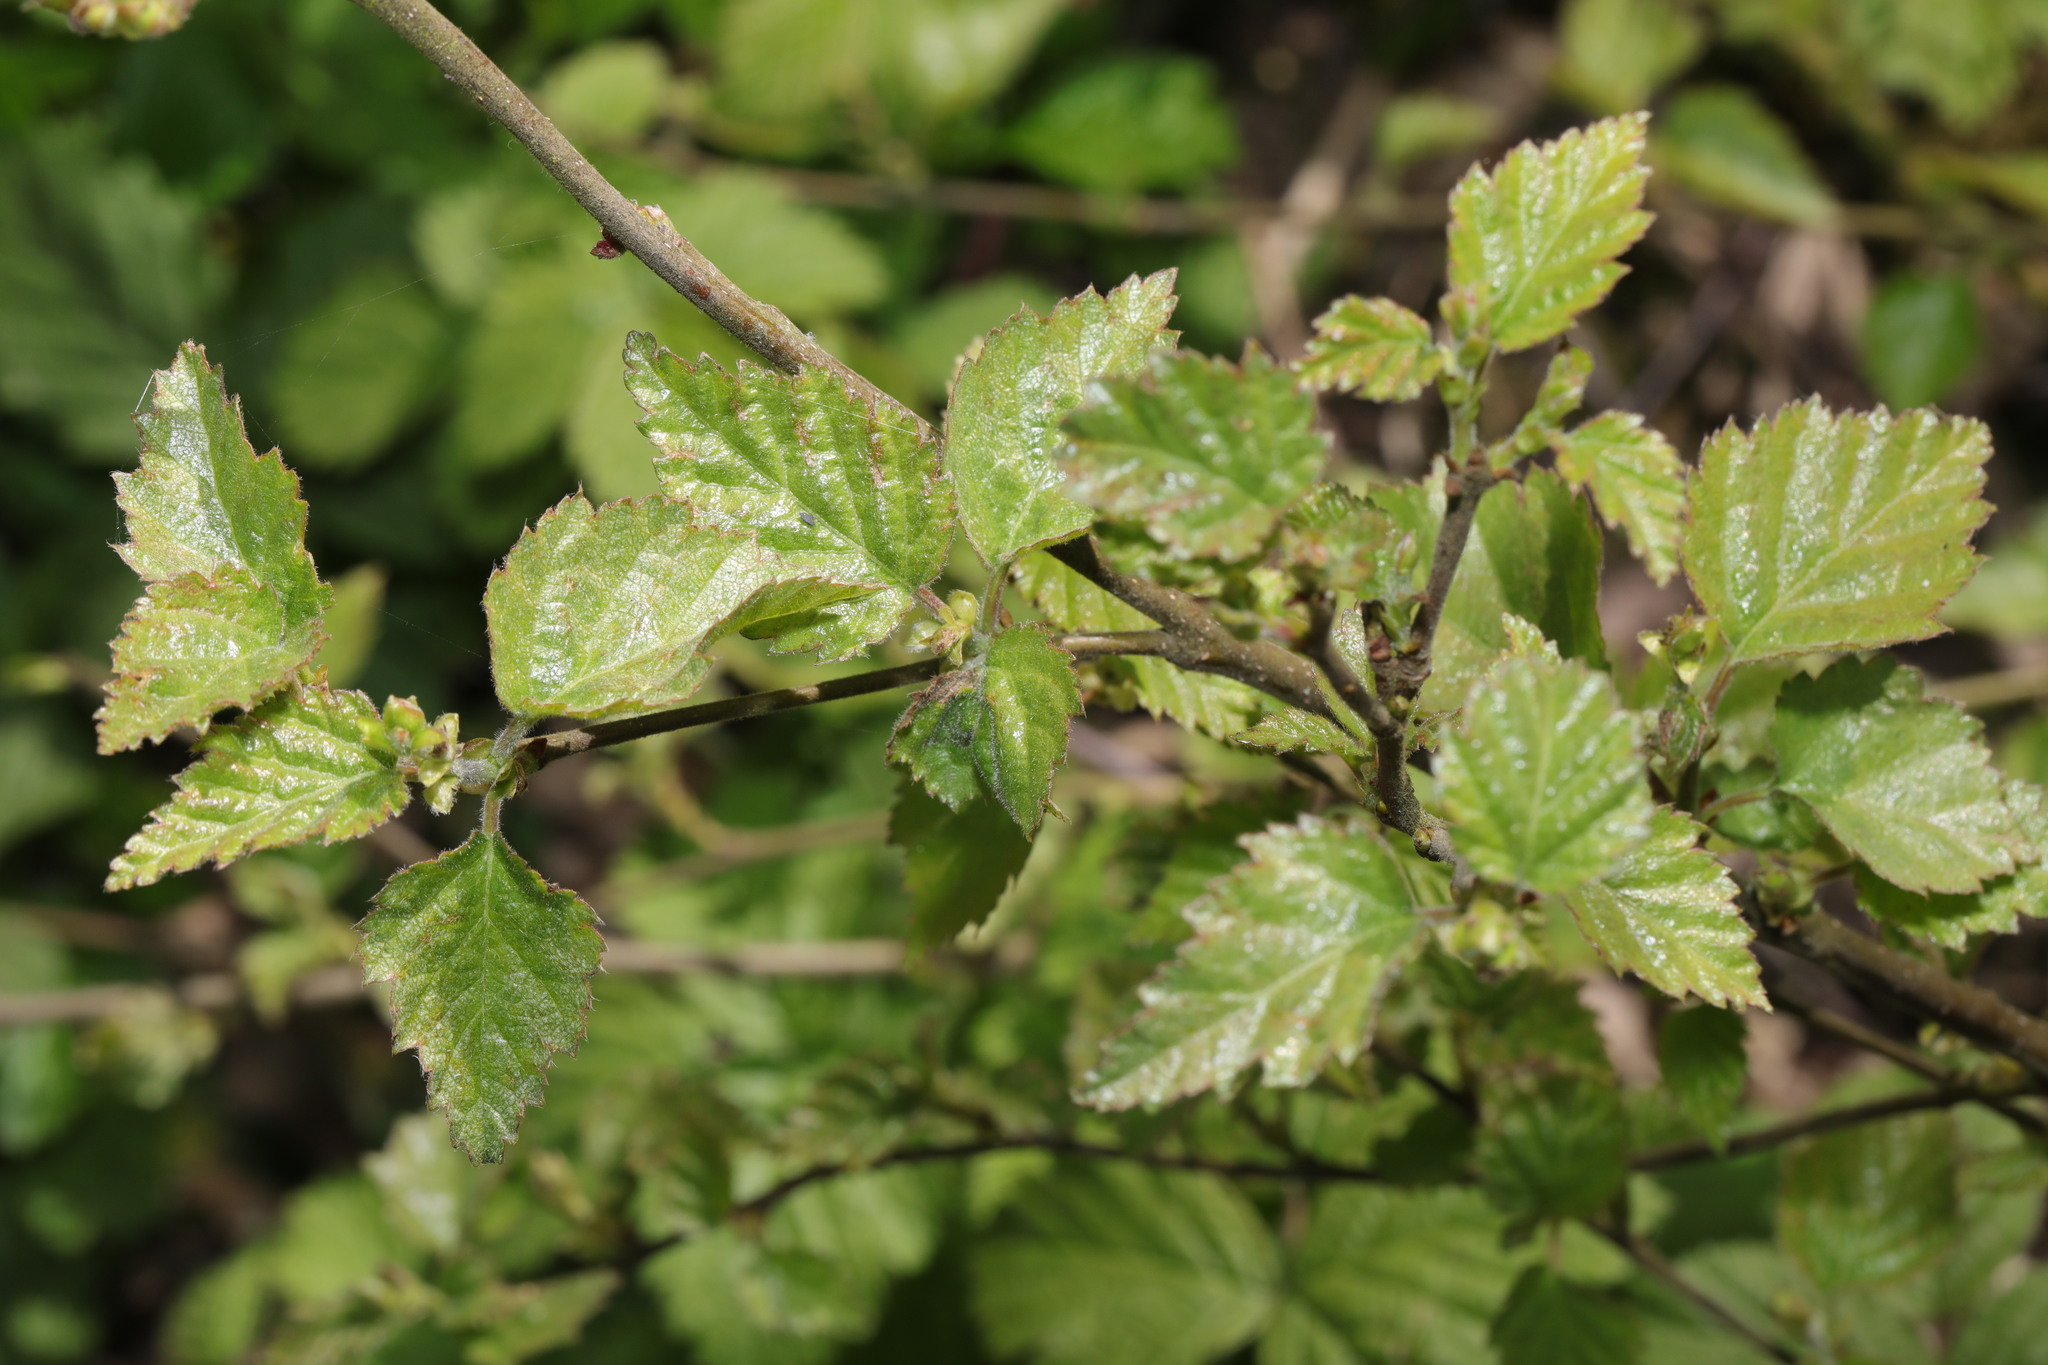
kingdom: Plantae
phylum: Tracheophyta
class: Magnoliopsida
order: Fagales
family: Betulaceae
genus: Betula
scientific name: Betula pubescens
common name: Downy birch
